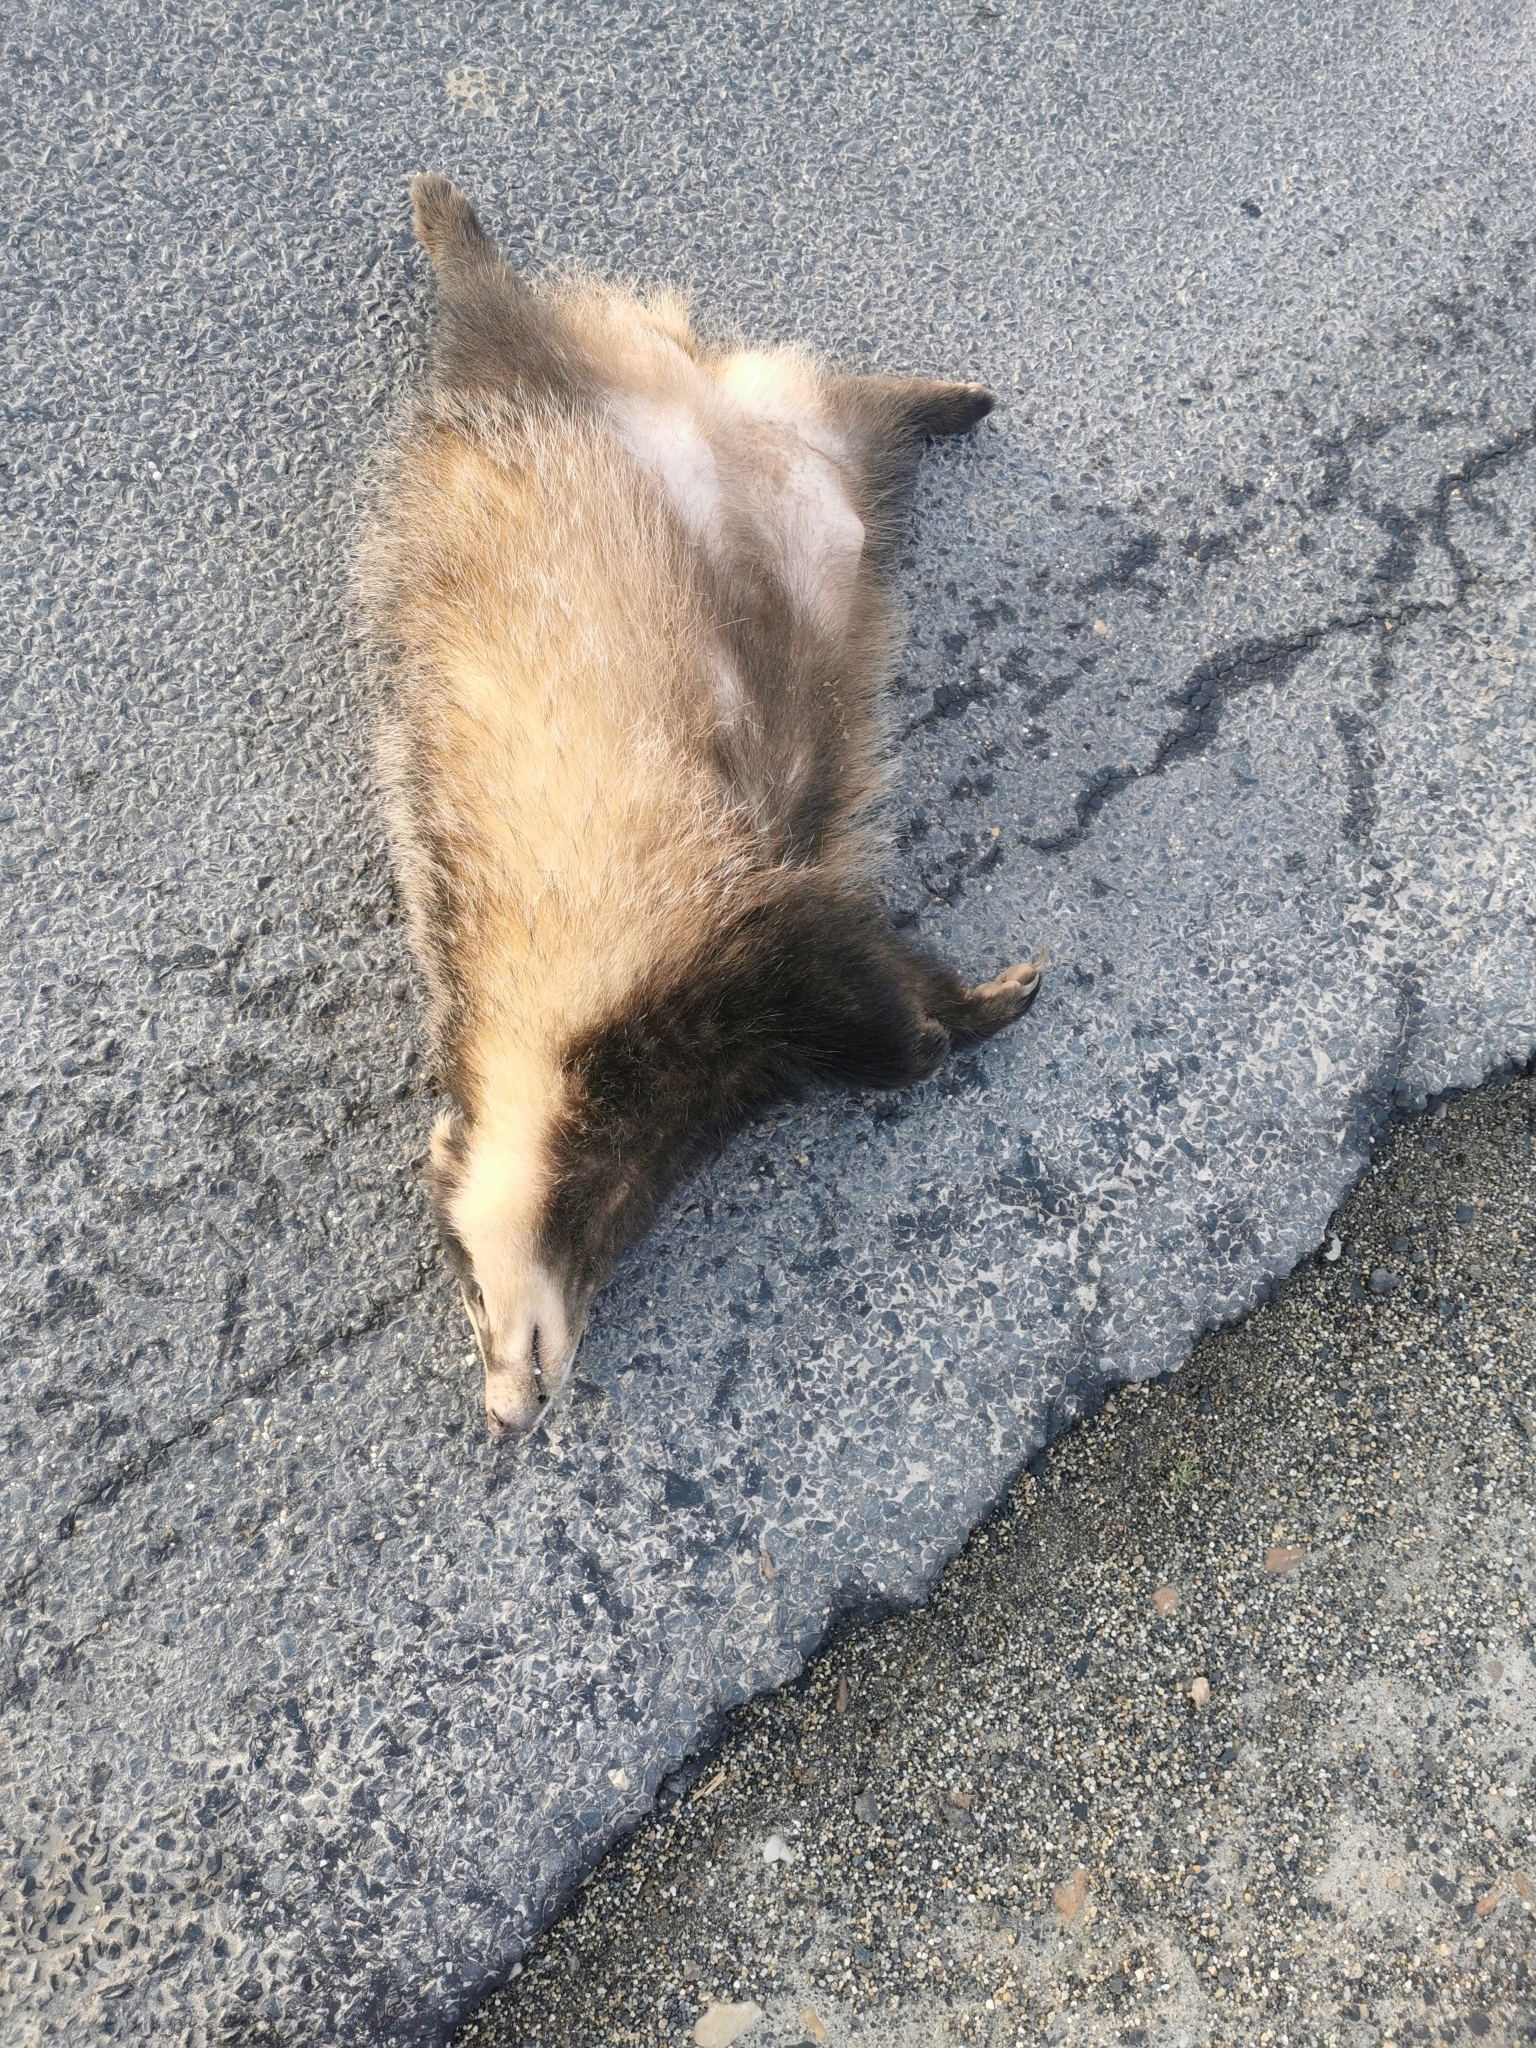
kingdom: Animalia
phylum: Chordata
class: Mammalia
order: Carnivora
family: Mustelidae
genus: Meles
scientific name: Meles meles
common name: Eurasian badger
